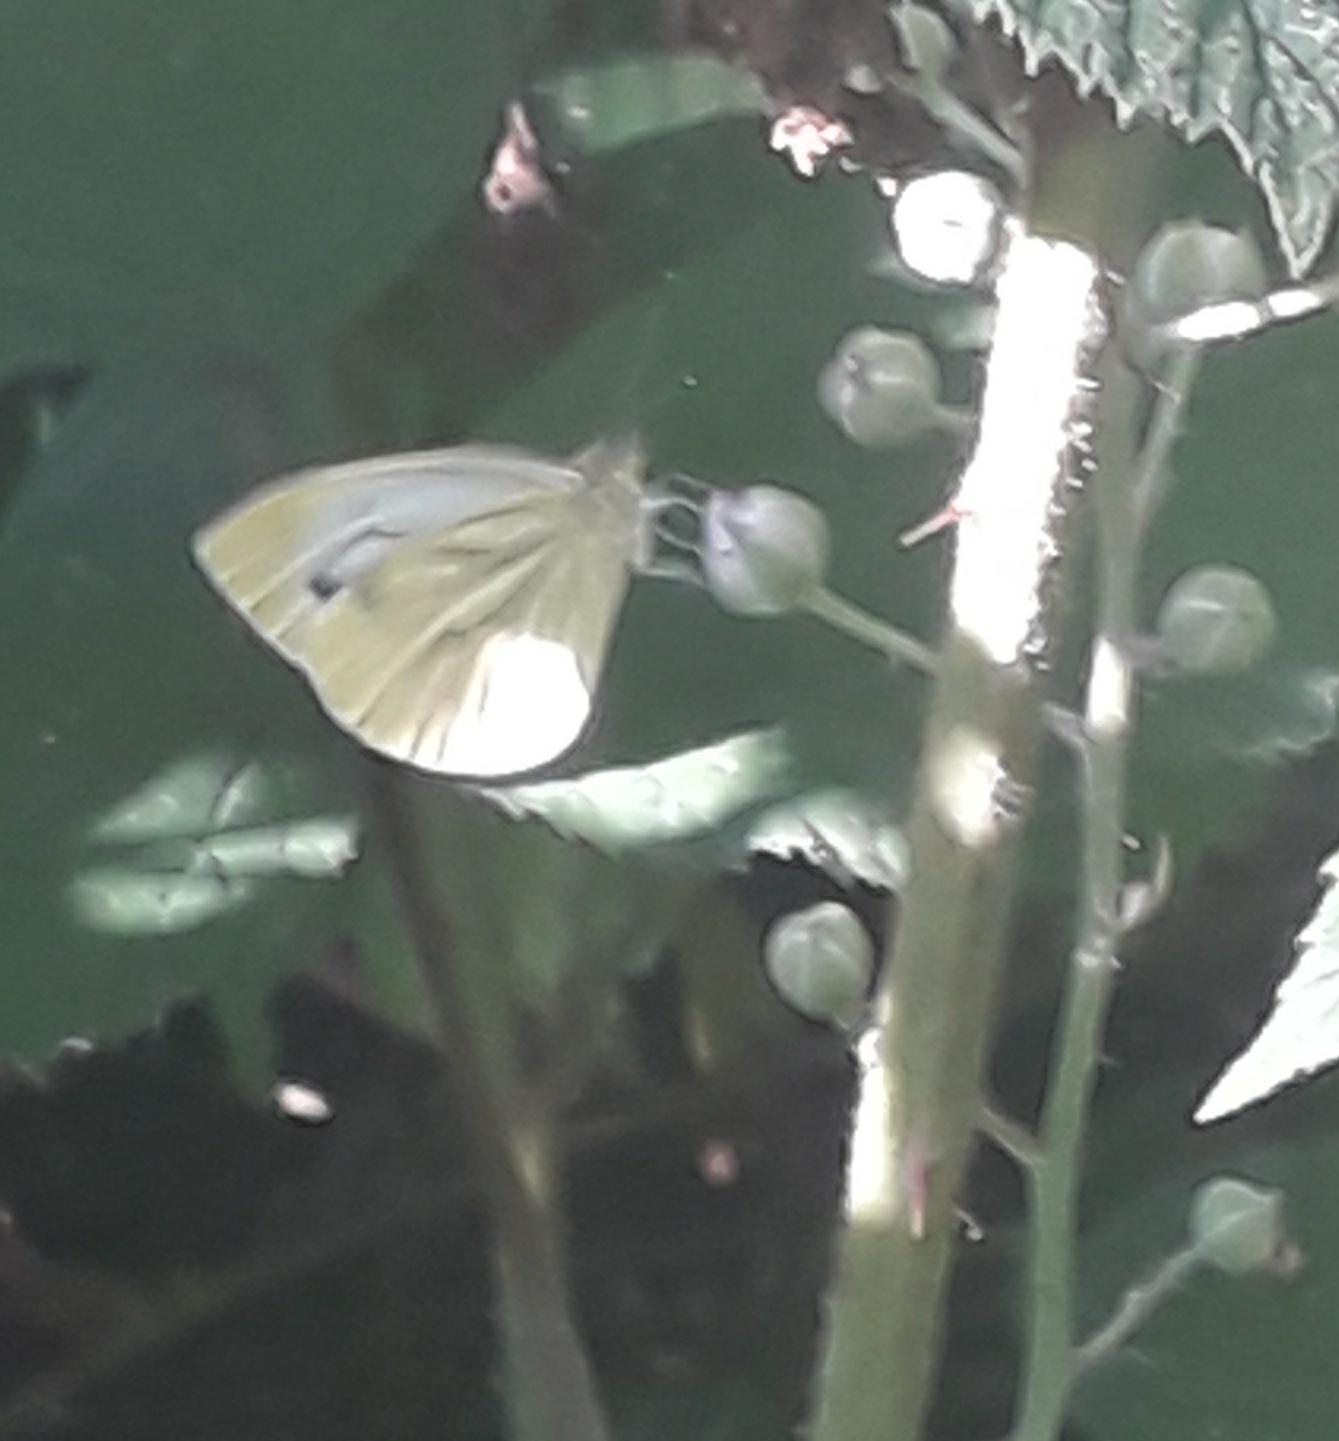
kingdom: Animalia
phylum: Arthropoda
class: Insecta
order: Lepidoptera
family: Pieridae
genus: Pieris
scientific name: Pieris napi
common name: Green-veined white
